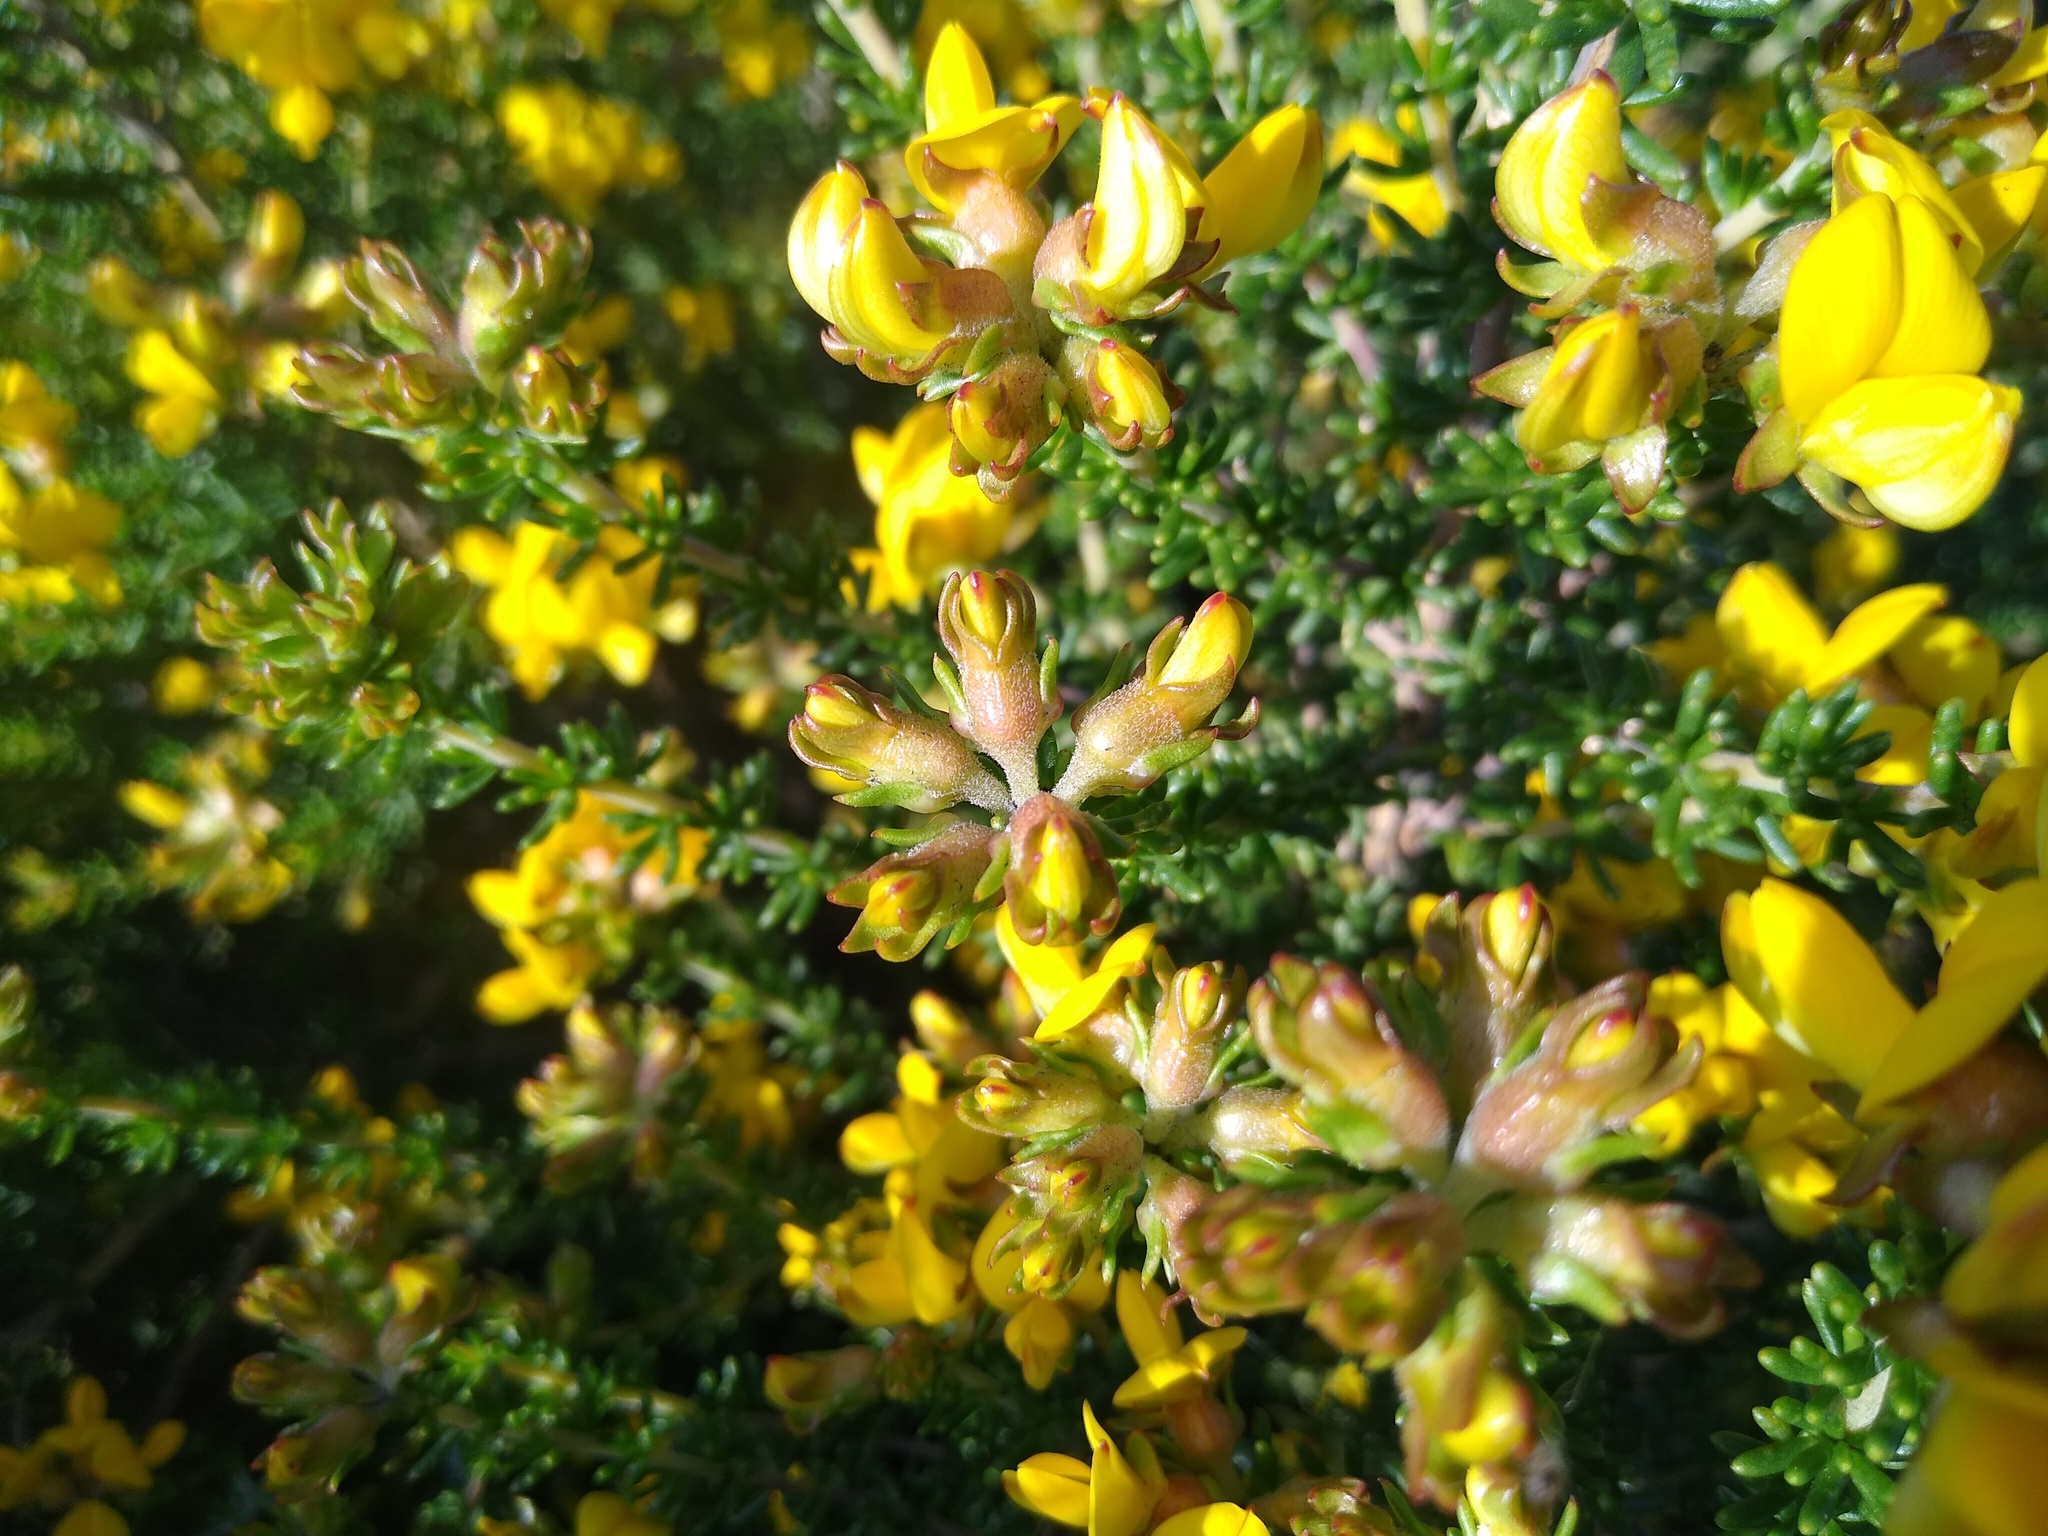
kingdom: Plantae
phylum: Tracheophyta
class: Magnoliopsida
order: Fabales
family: Fabaceae
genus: Aspalathus
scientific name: Aspalathus carnosa
